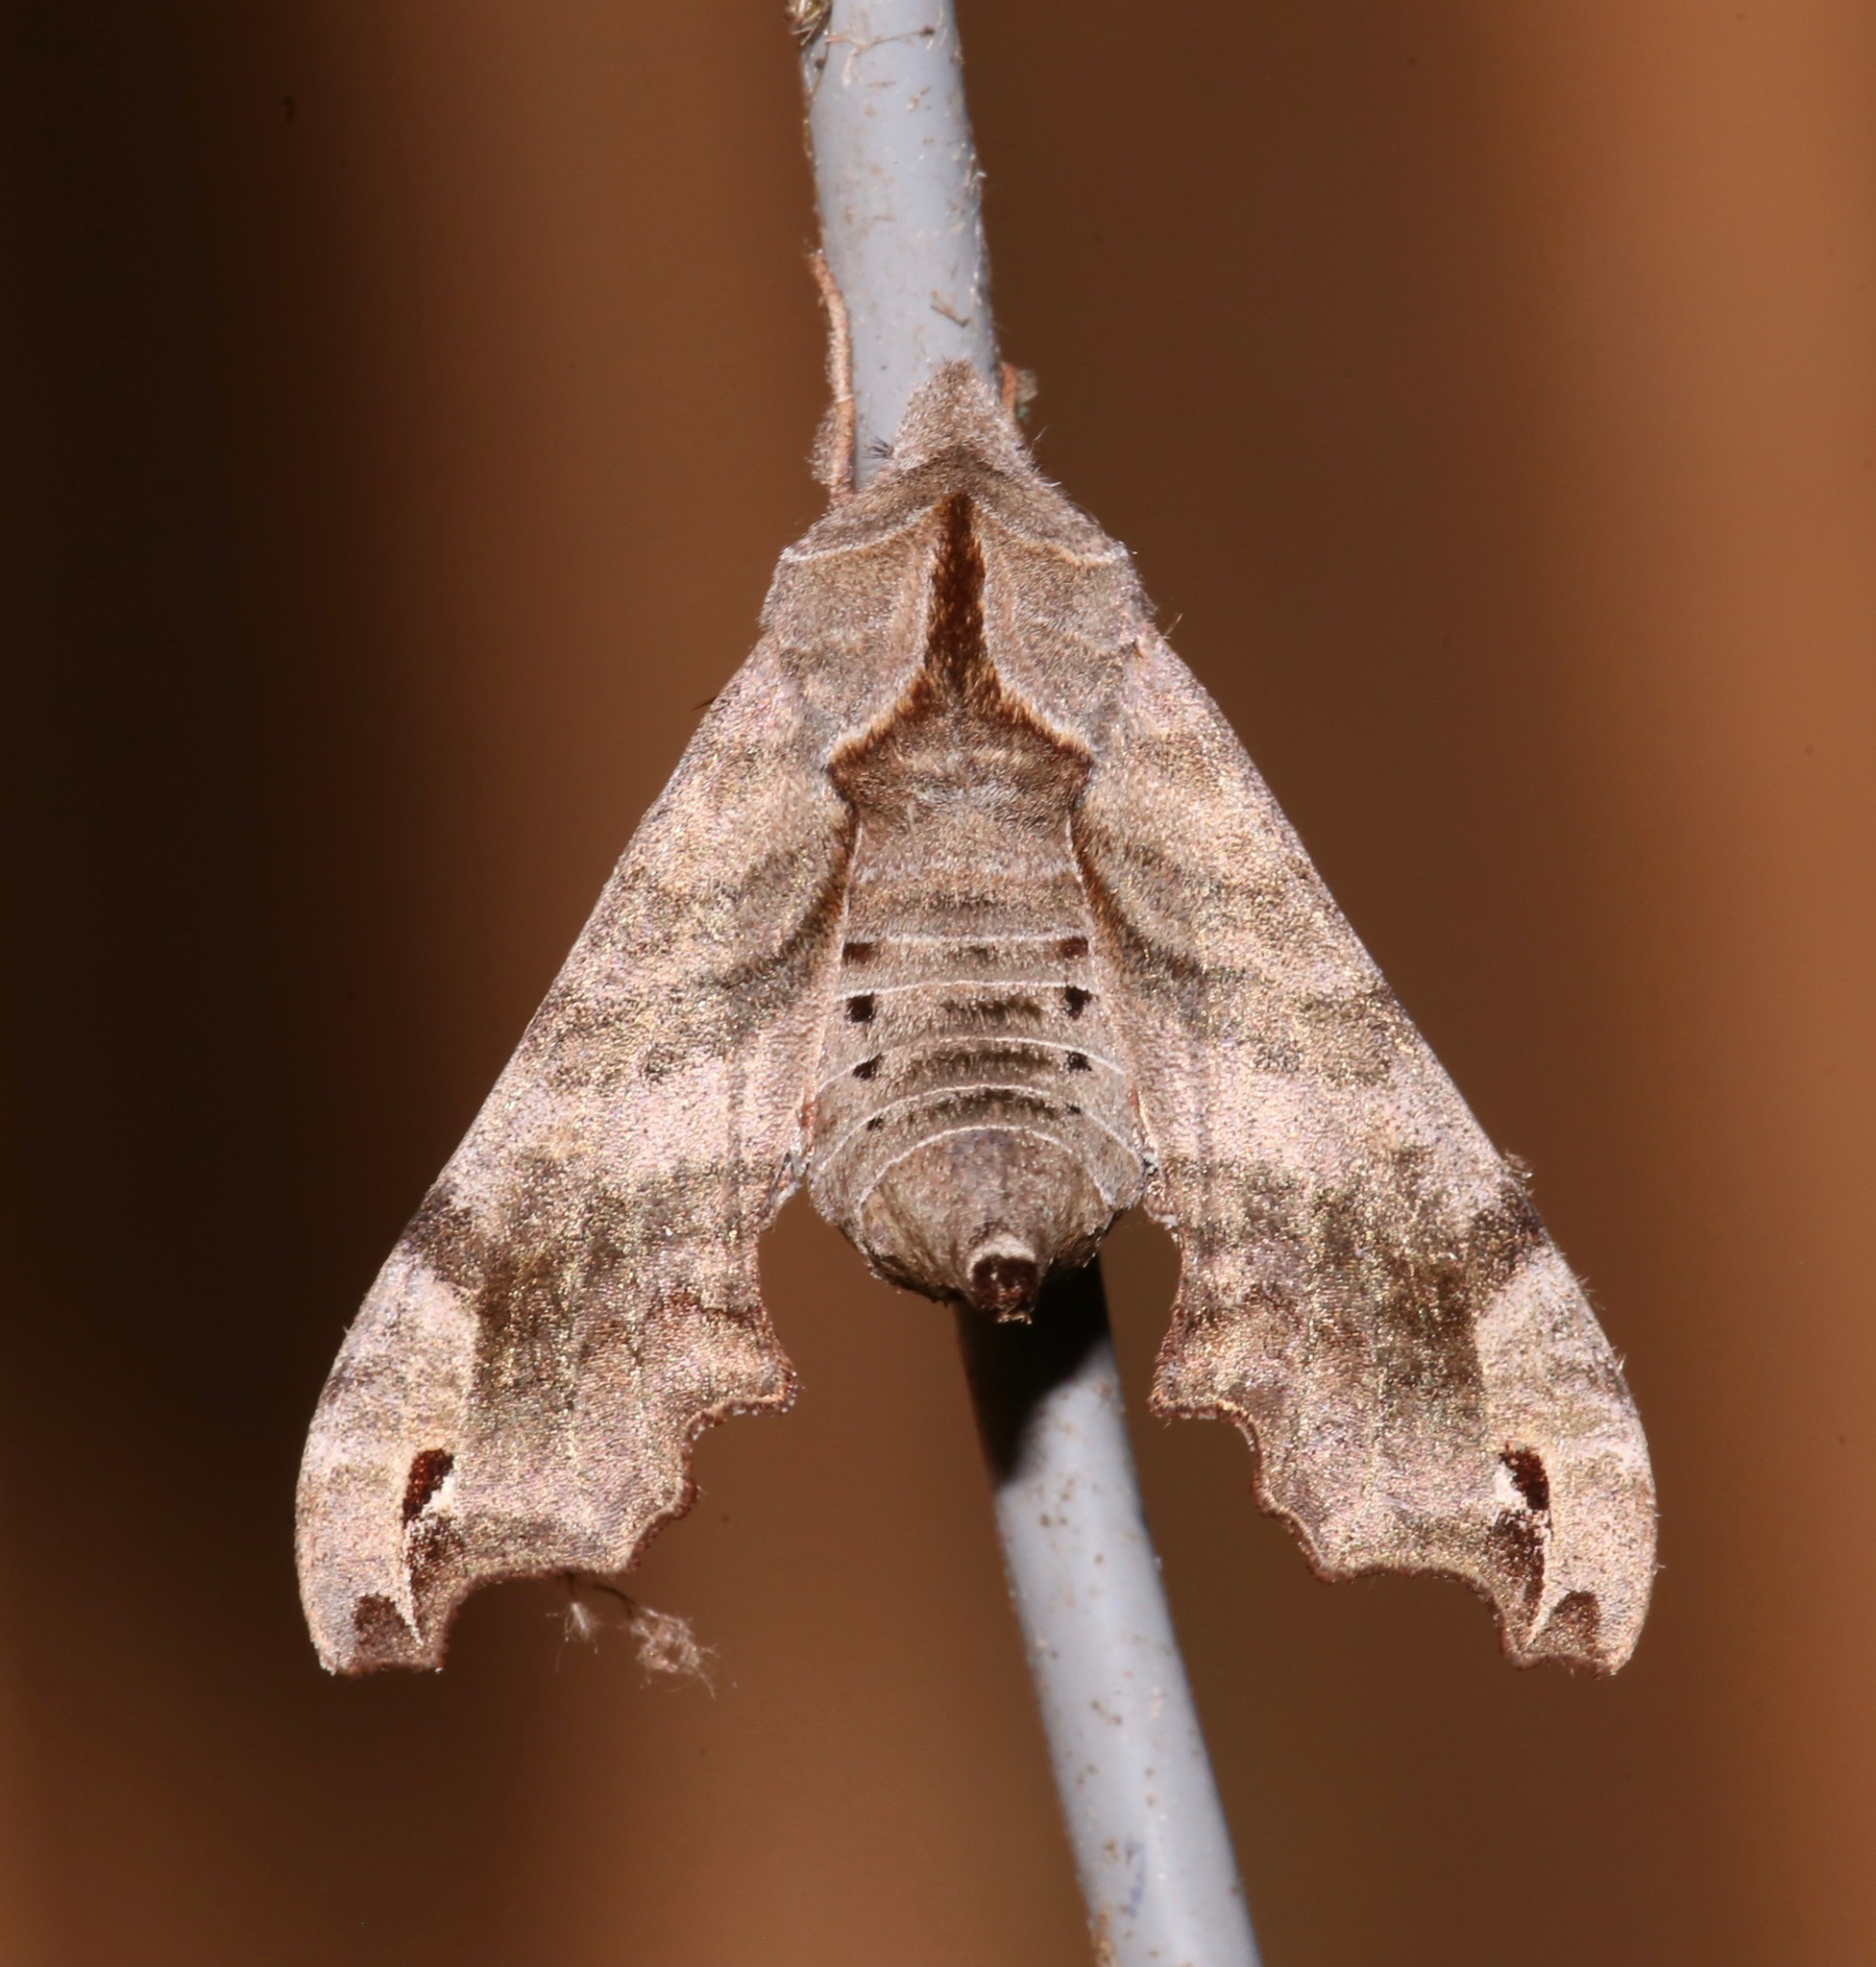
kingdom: Animalia
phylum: Arthropoda
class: Insecta
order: Lepidoptera
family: Sphingidae
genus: Deidamia
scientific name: Deidamia inscriptum
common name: Lettered sphinx
